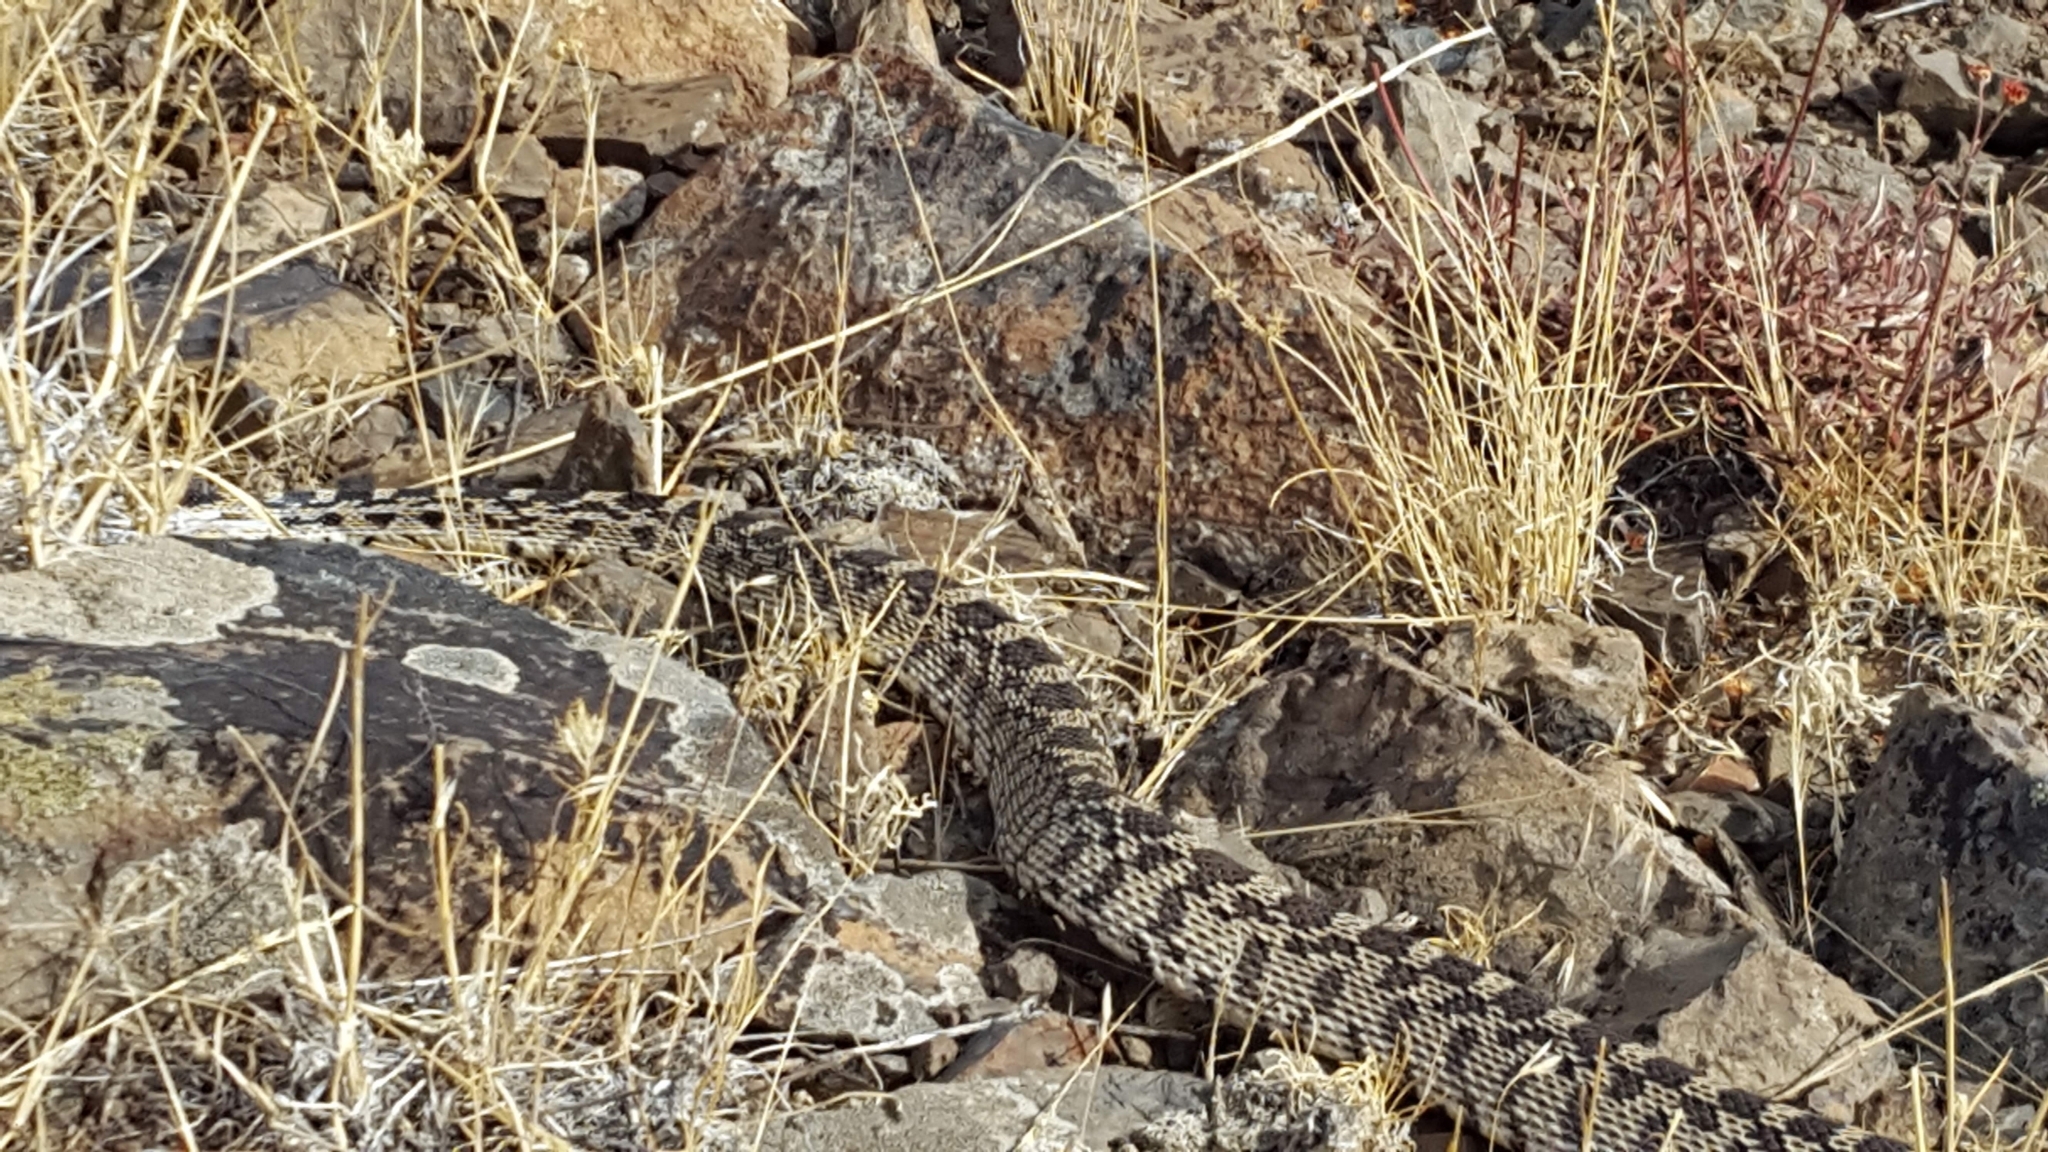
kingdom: Animalia
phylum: Chordata
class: Squamata
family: Colubridae
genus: Pituophis
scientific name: Pituophis catenifer
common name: Gopher snake
